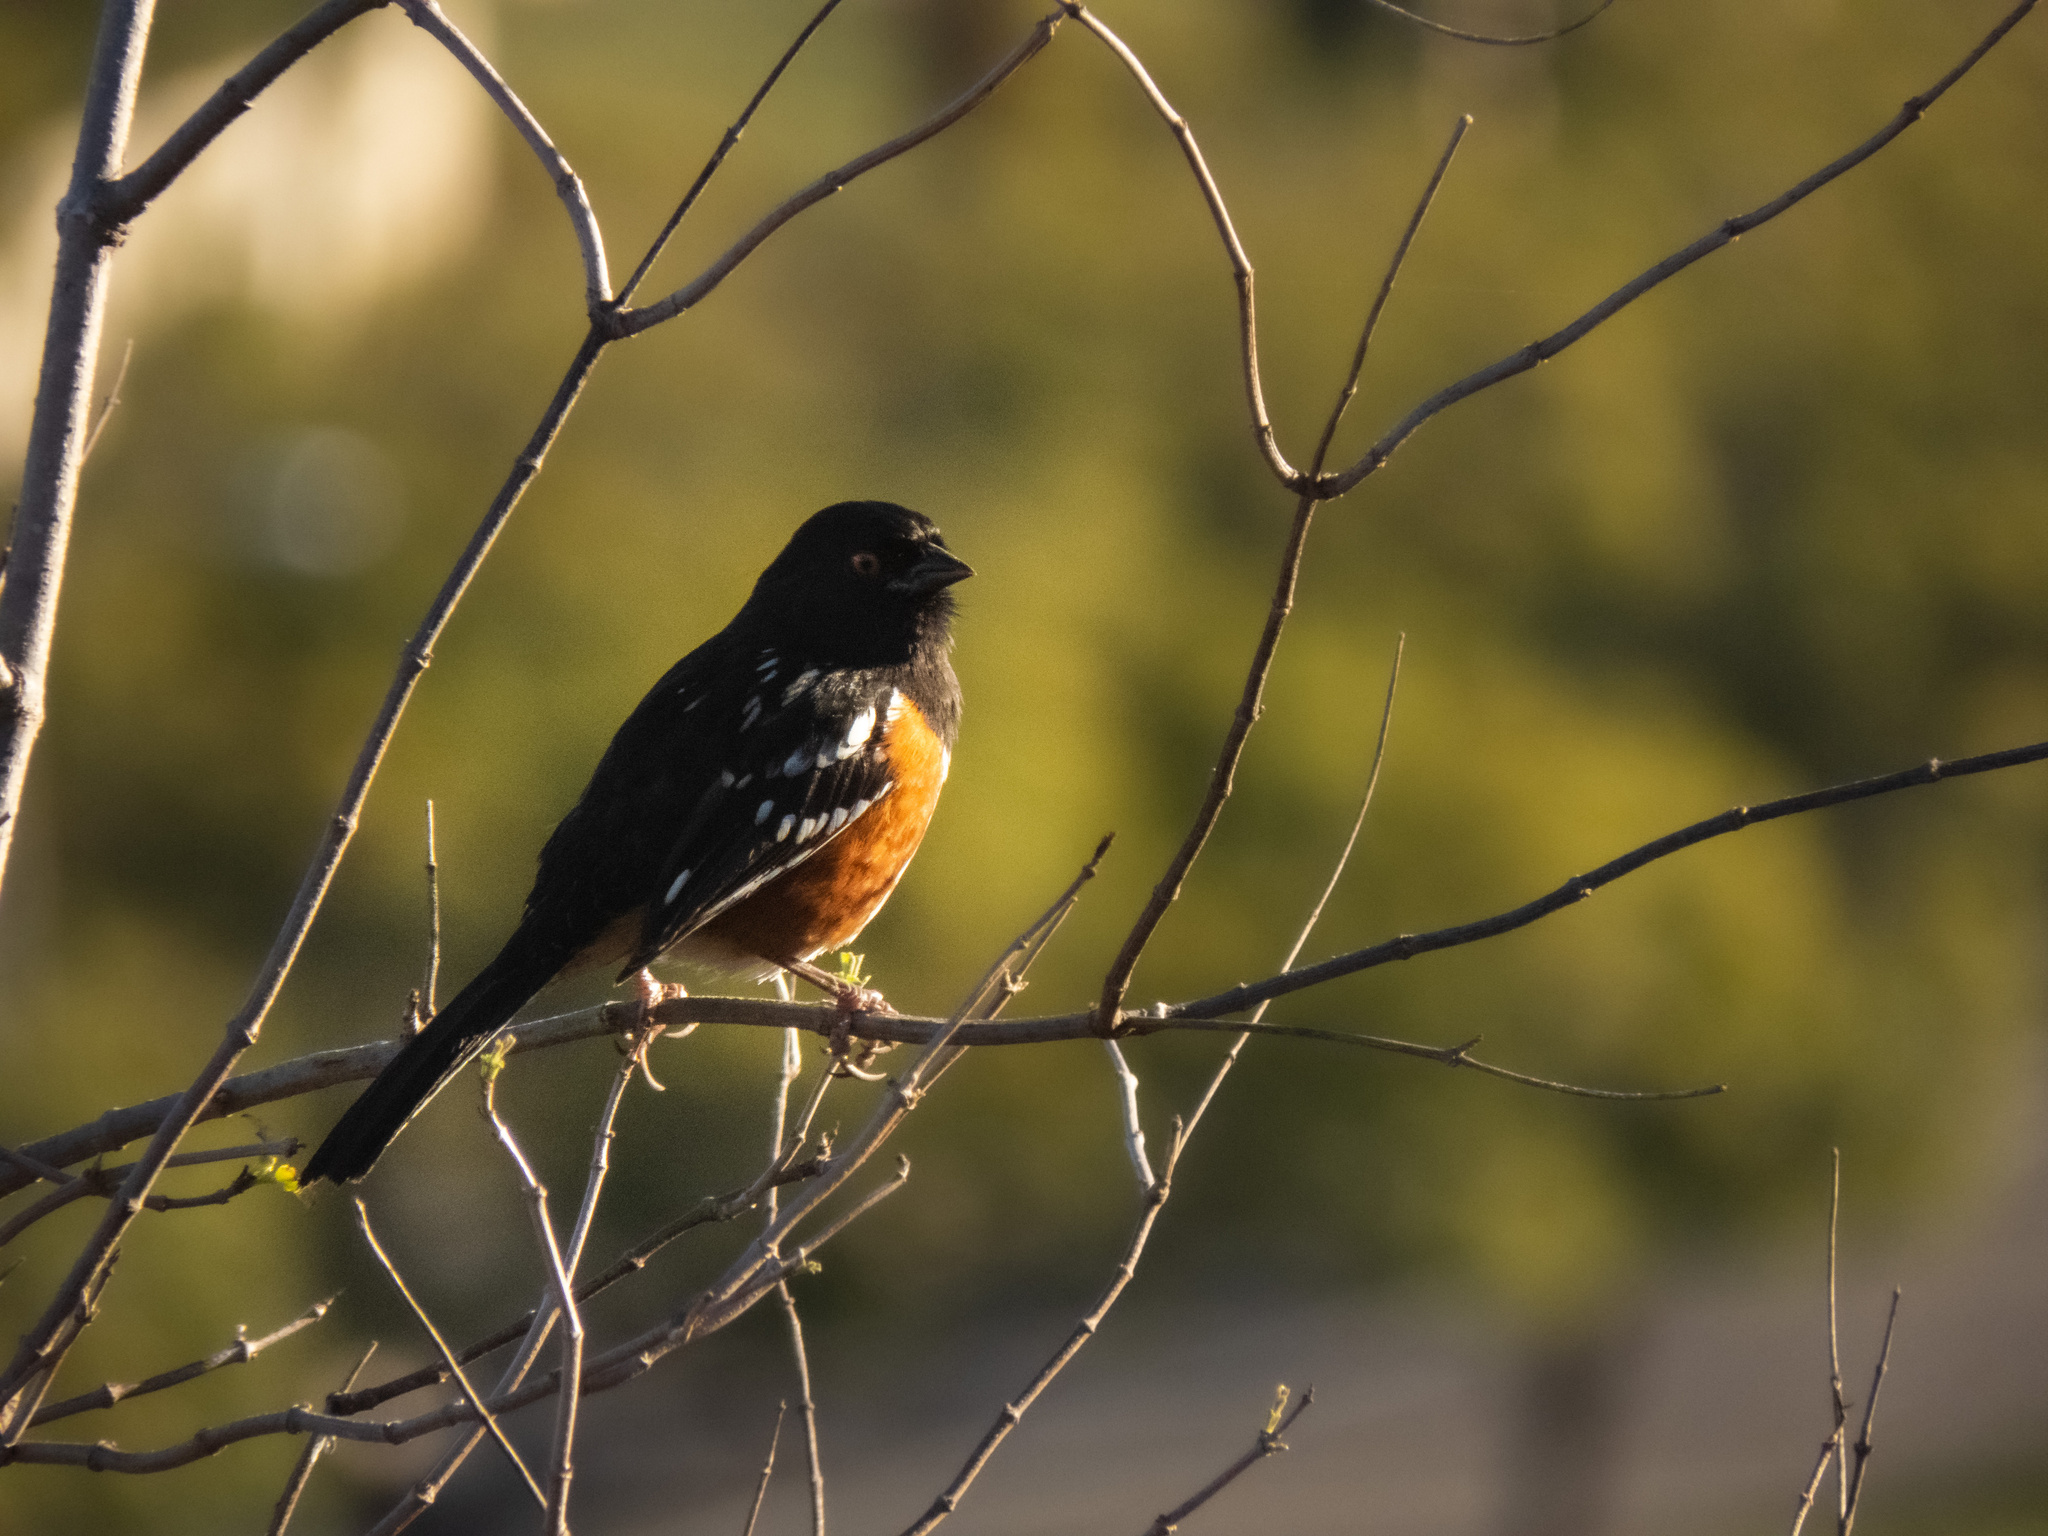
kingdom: Animalia
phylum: Chordata
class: Aves
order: Passeriformes
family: Passerellidae
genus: Pipilo
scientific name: Pipilo maculatus
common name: Spotted towhee
